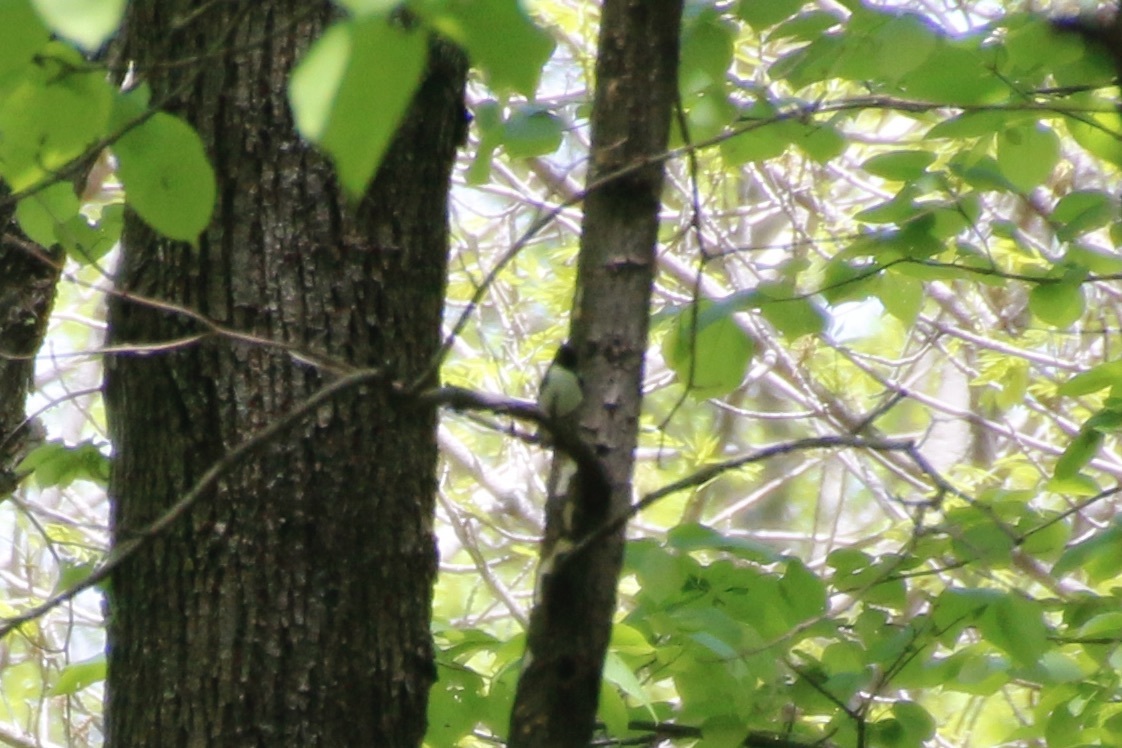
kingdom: Animalia
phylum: Chordata
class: Aves
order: Passeriformes
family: Parulidae
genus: Setophaga
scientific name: Setophaga caerulescens
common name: Black-throated blue warbler
